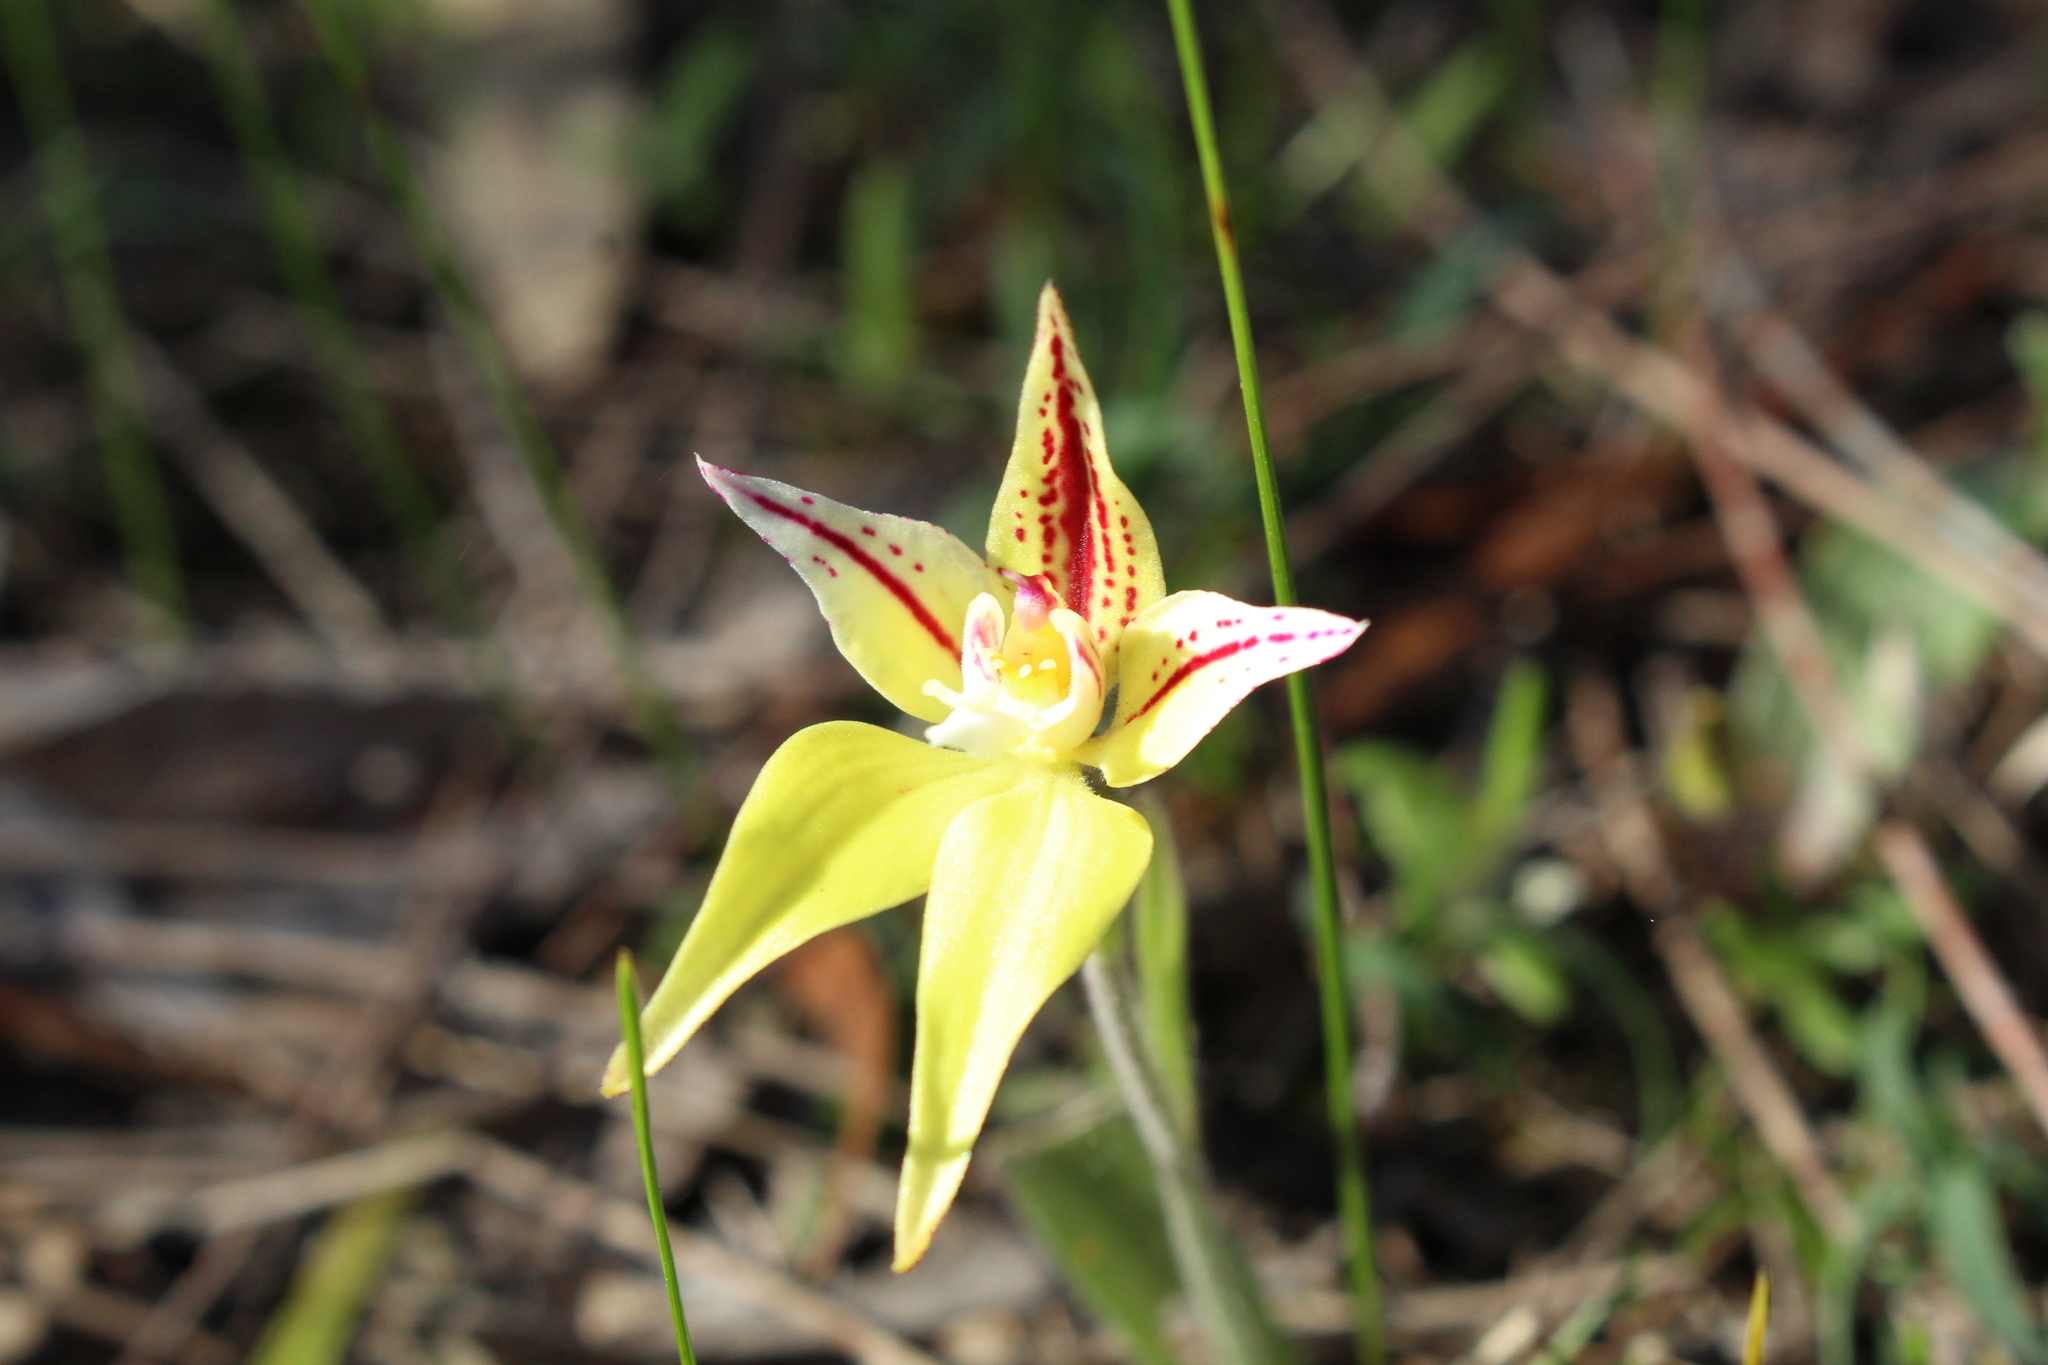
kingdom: Plantae
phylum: Tracheophyta
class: Liliopsida
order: Asparagales
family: Orchidaceae
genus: Caladenia
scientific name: Caladenia flava
